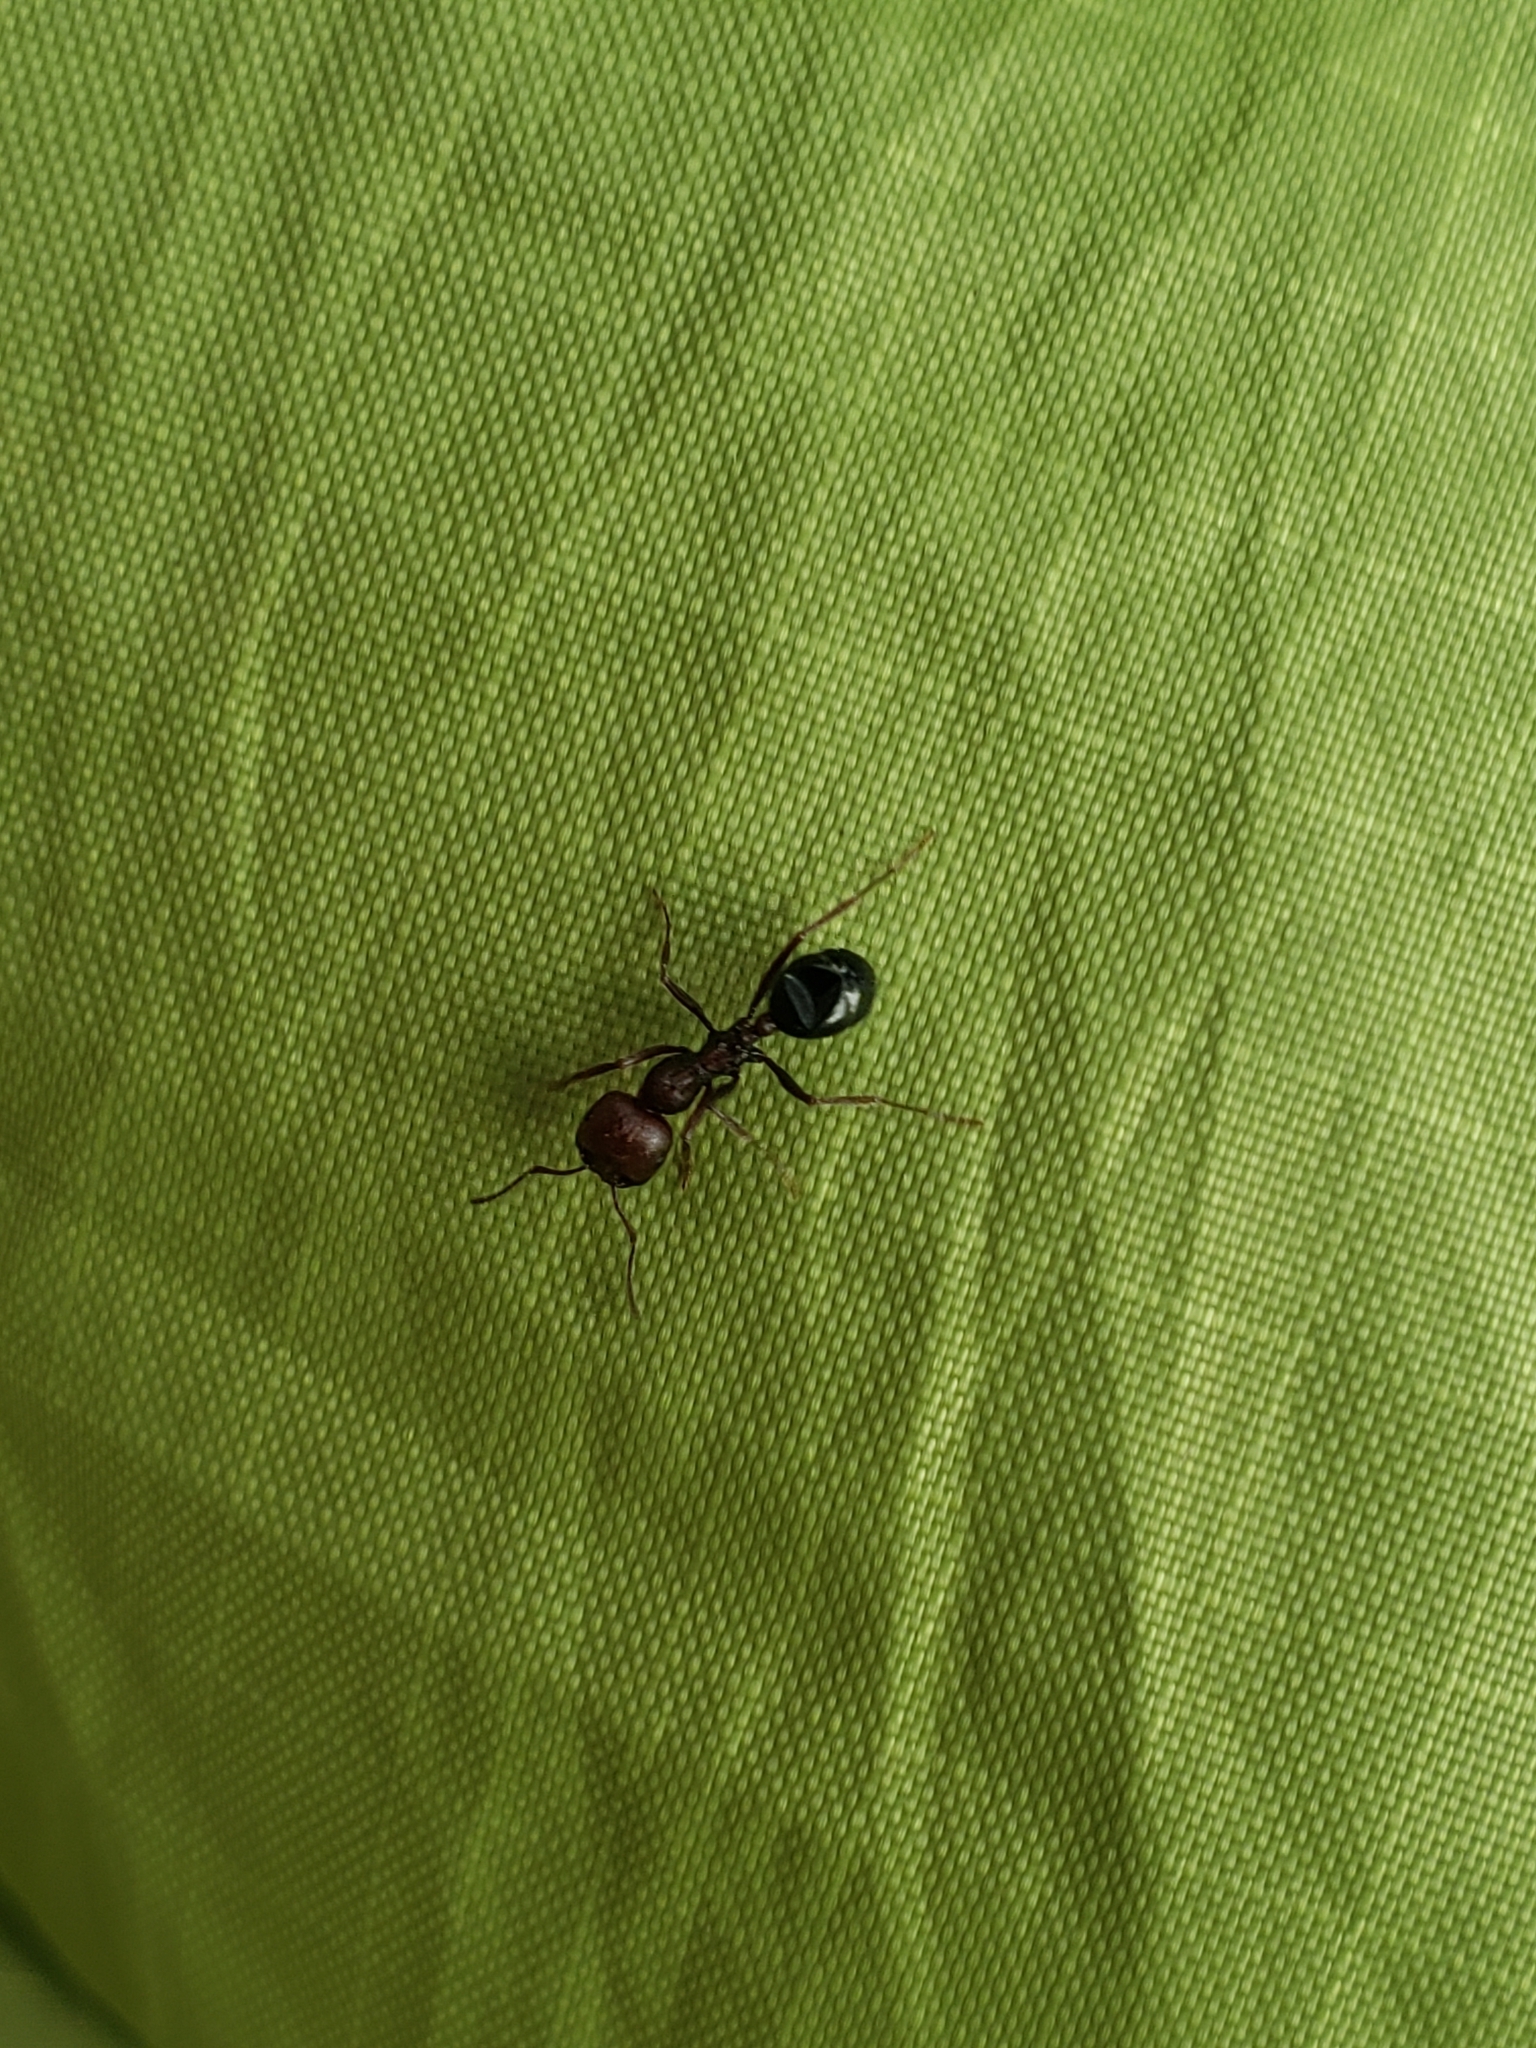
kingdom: Animalia
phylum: Arthropoda
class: Insecta
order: Hymenoptera
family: Formicidae
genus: Messor
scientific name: Messor minor
